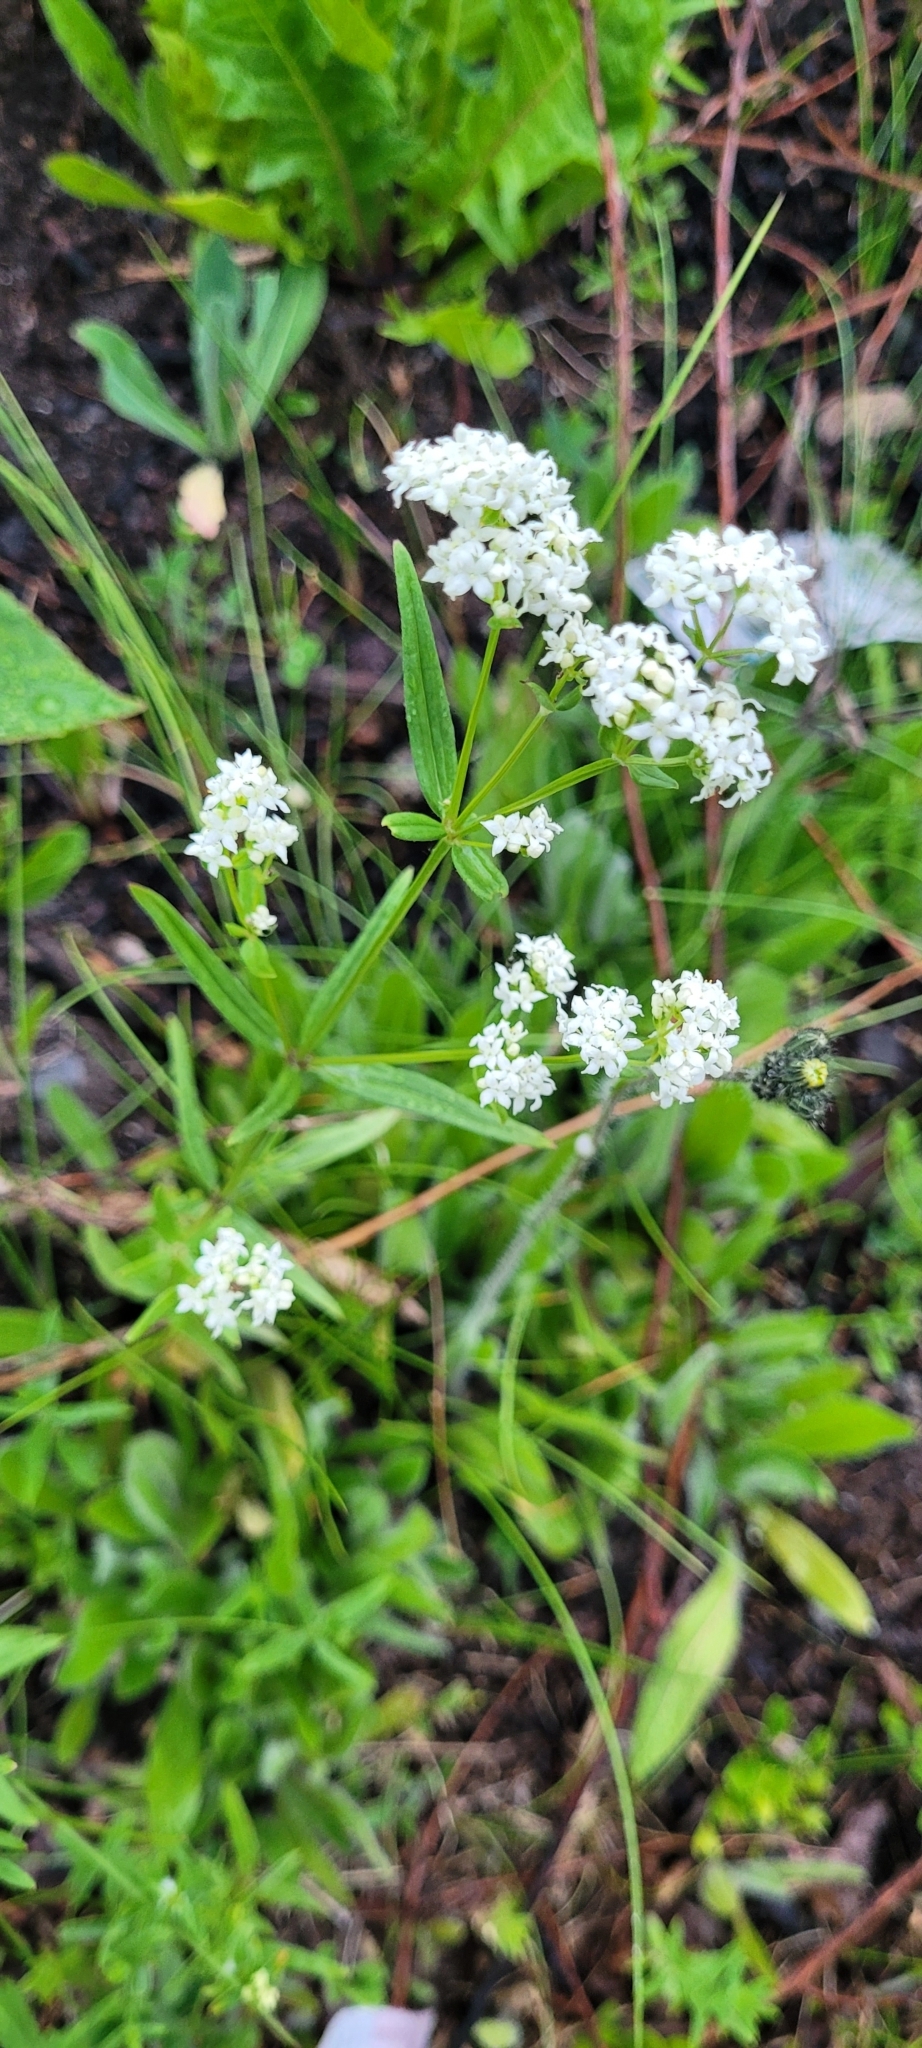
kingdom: Plantae
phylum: Tracheophyta
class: Magnoliopsida
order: Gentianales
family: Rubiaceae
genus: Galium
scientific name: Galium boreale
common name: Northern bedstraw
